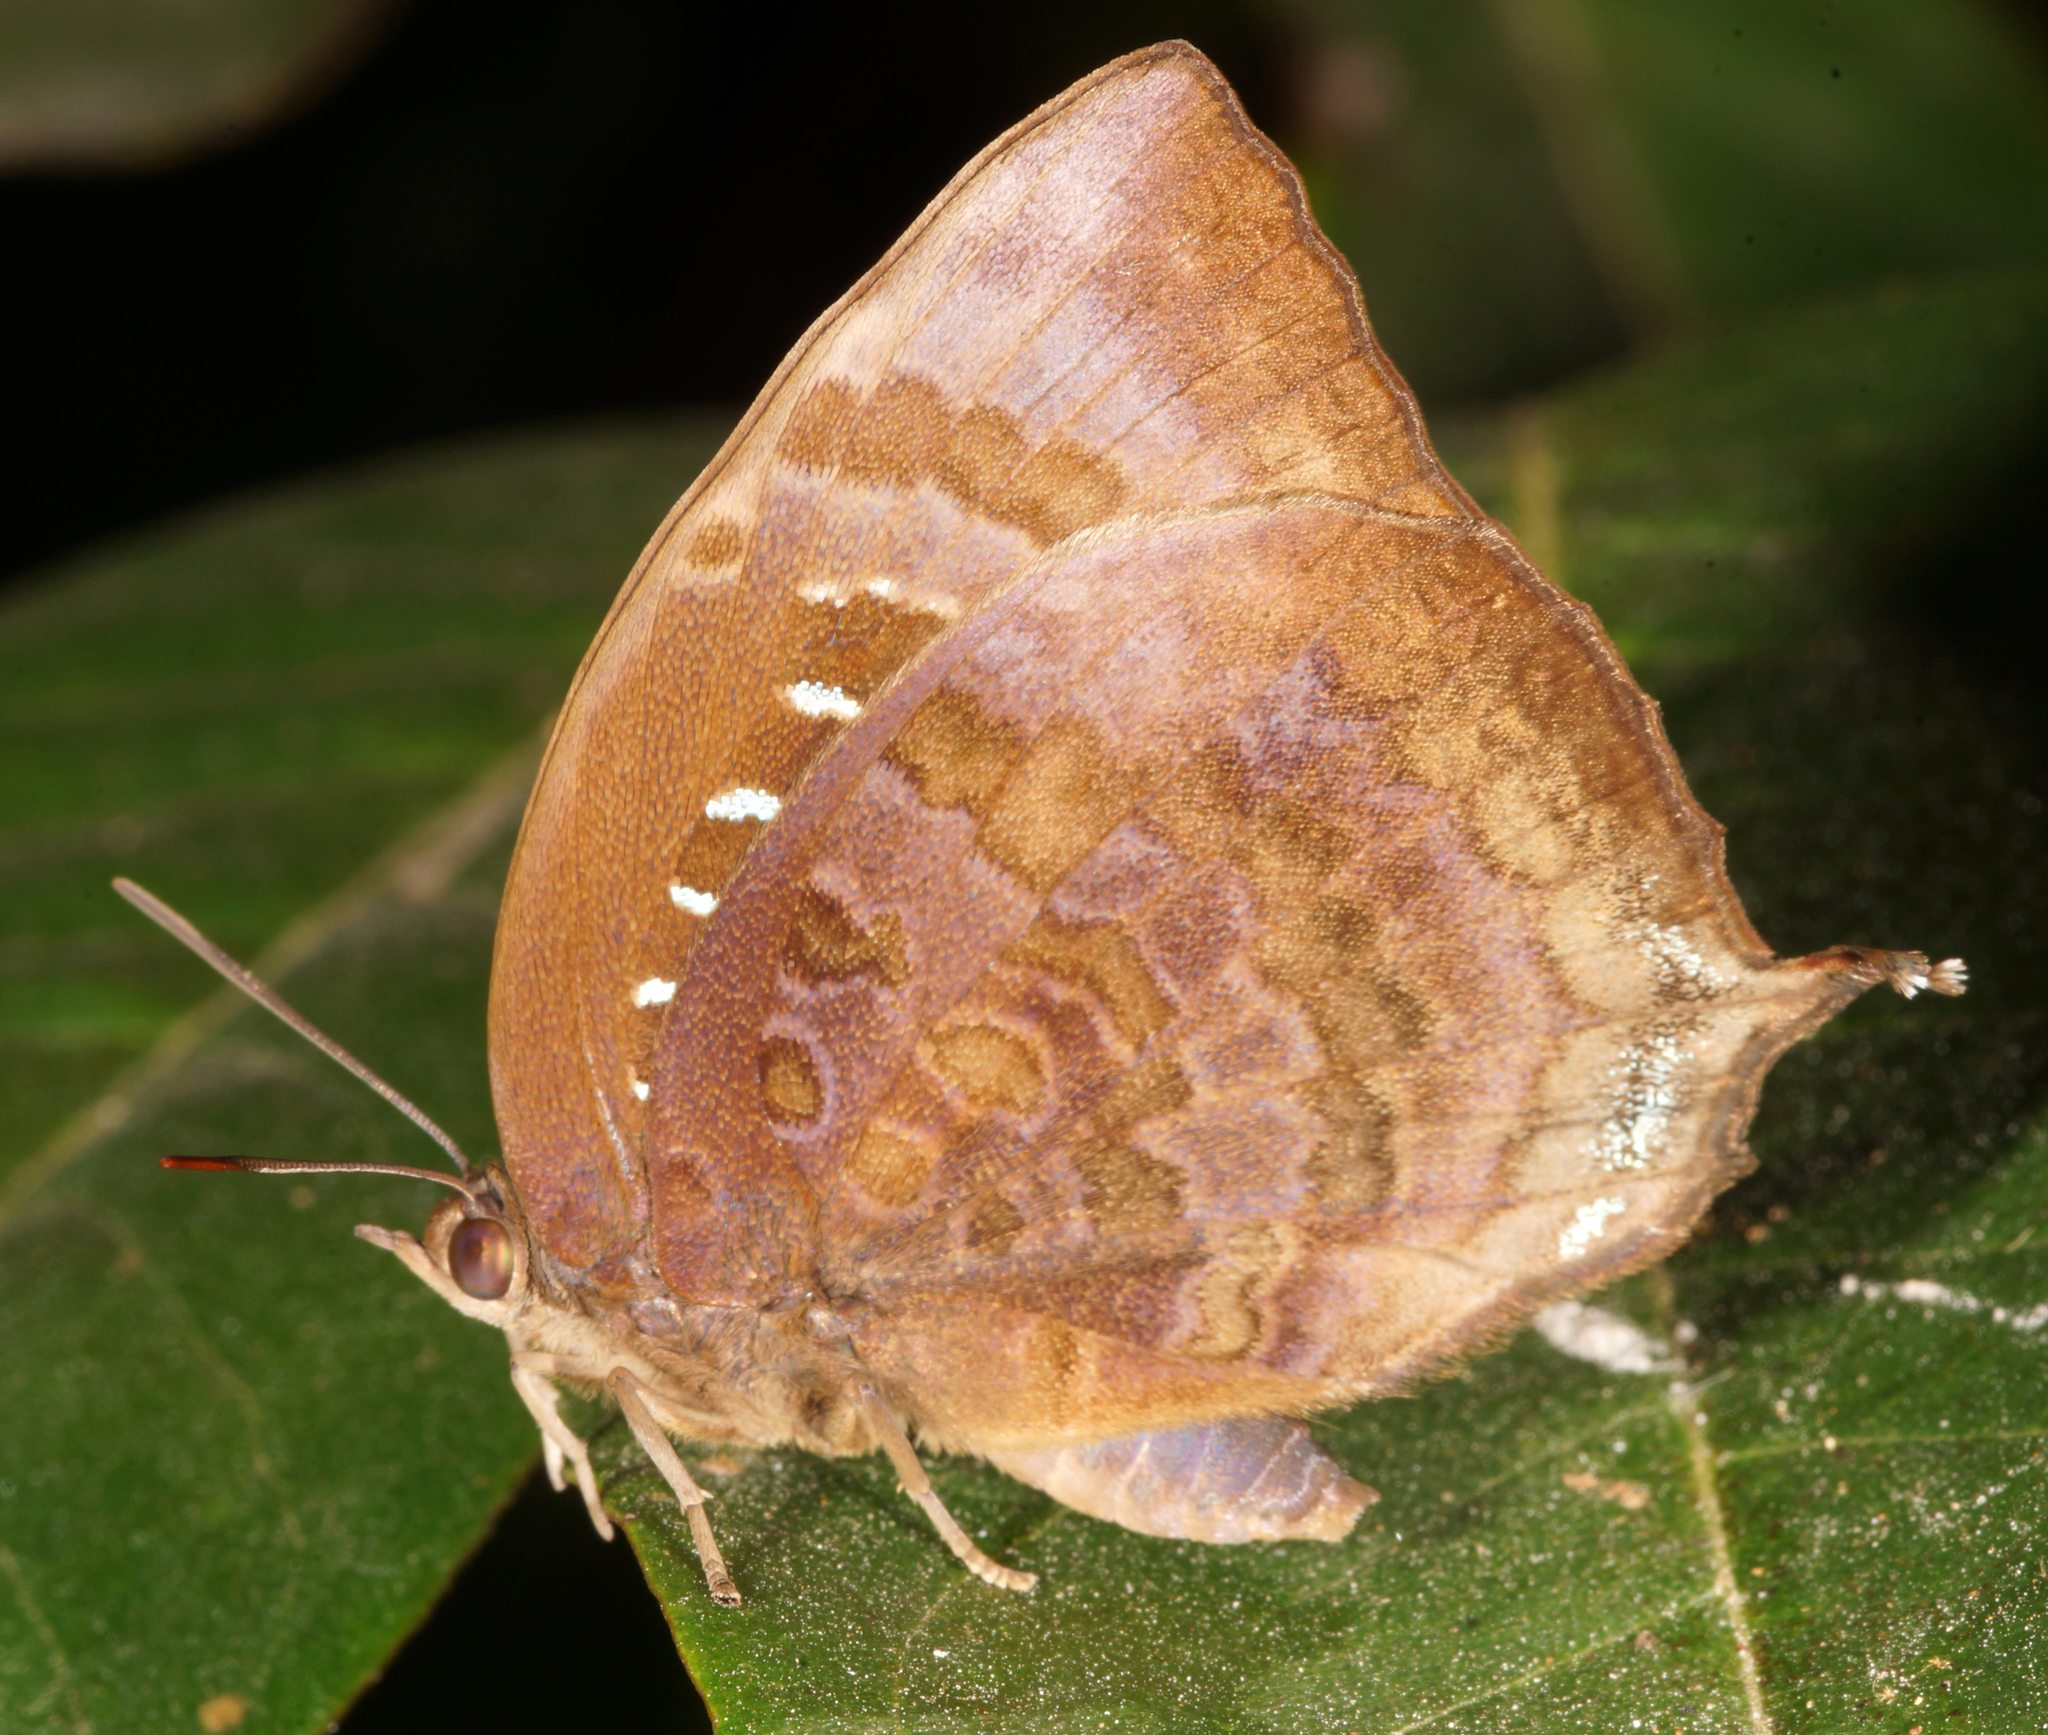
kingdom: Animalia
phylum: Arthropoda
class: Insecta
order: Lepidoptera
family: Lycaenidae
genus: Arhopala
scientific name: Arhopala centaurus
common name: Dull oak-blue
